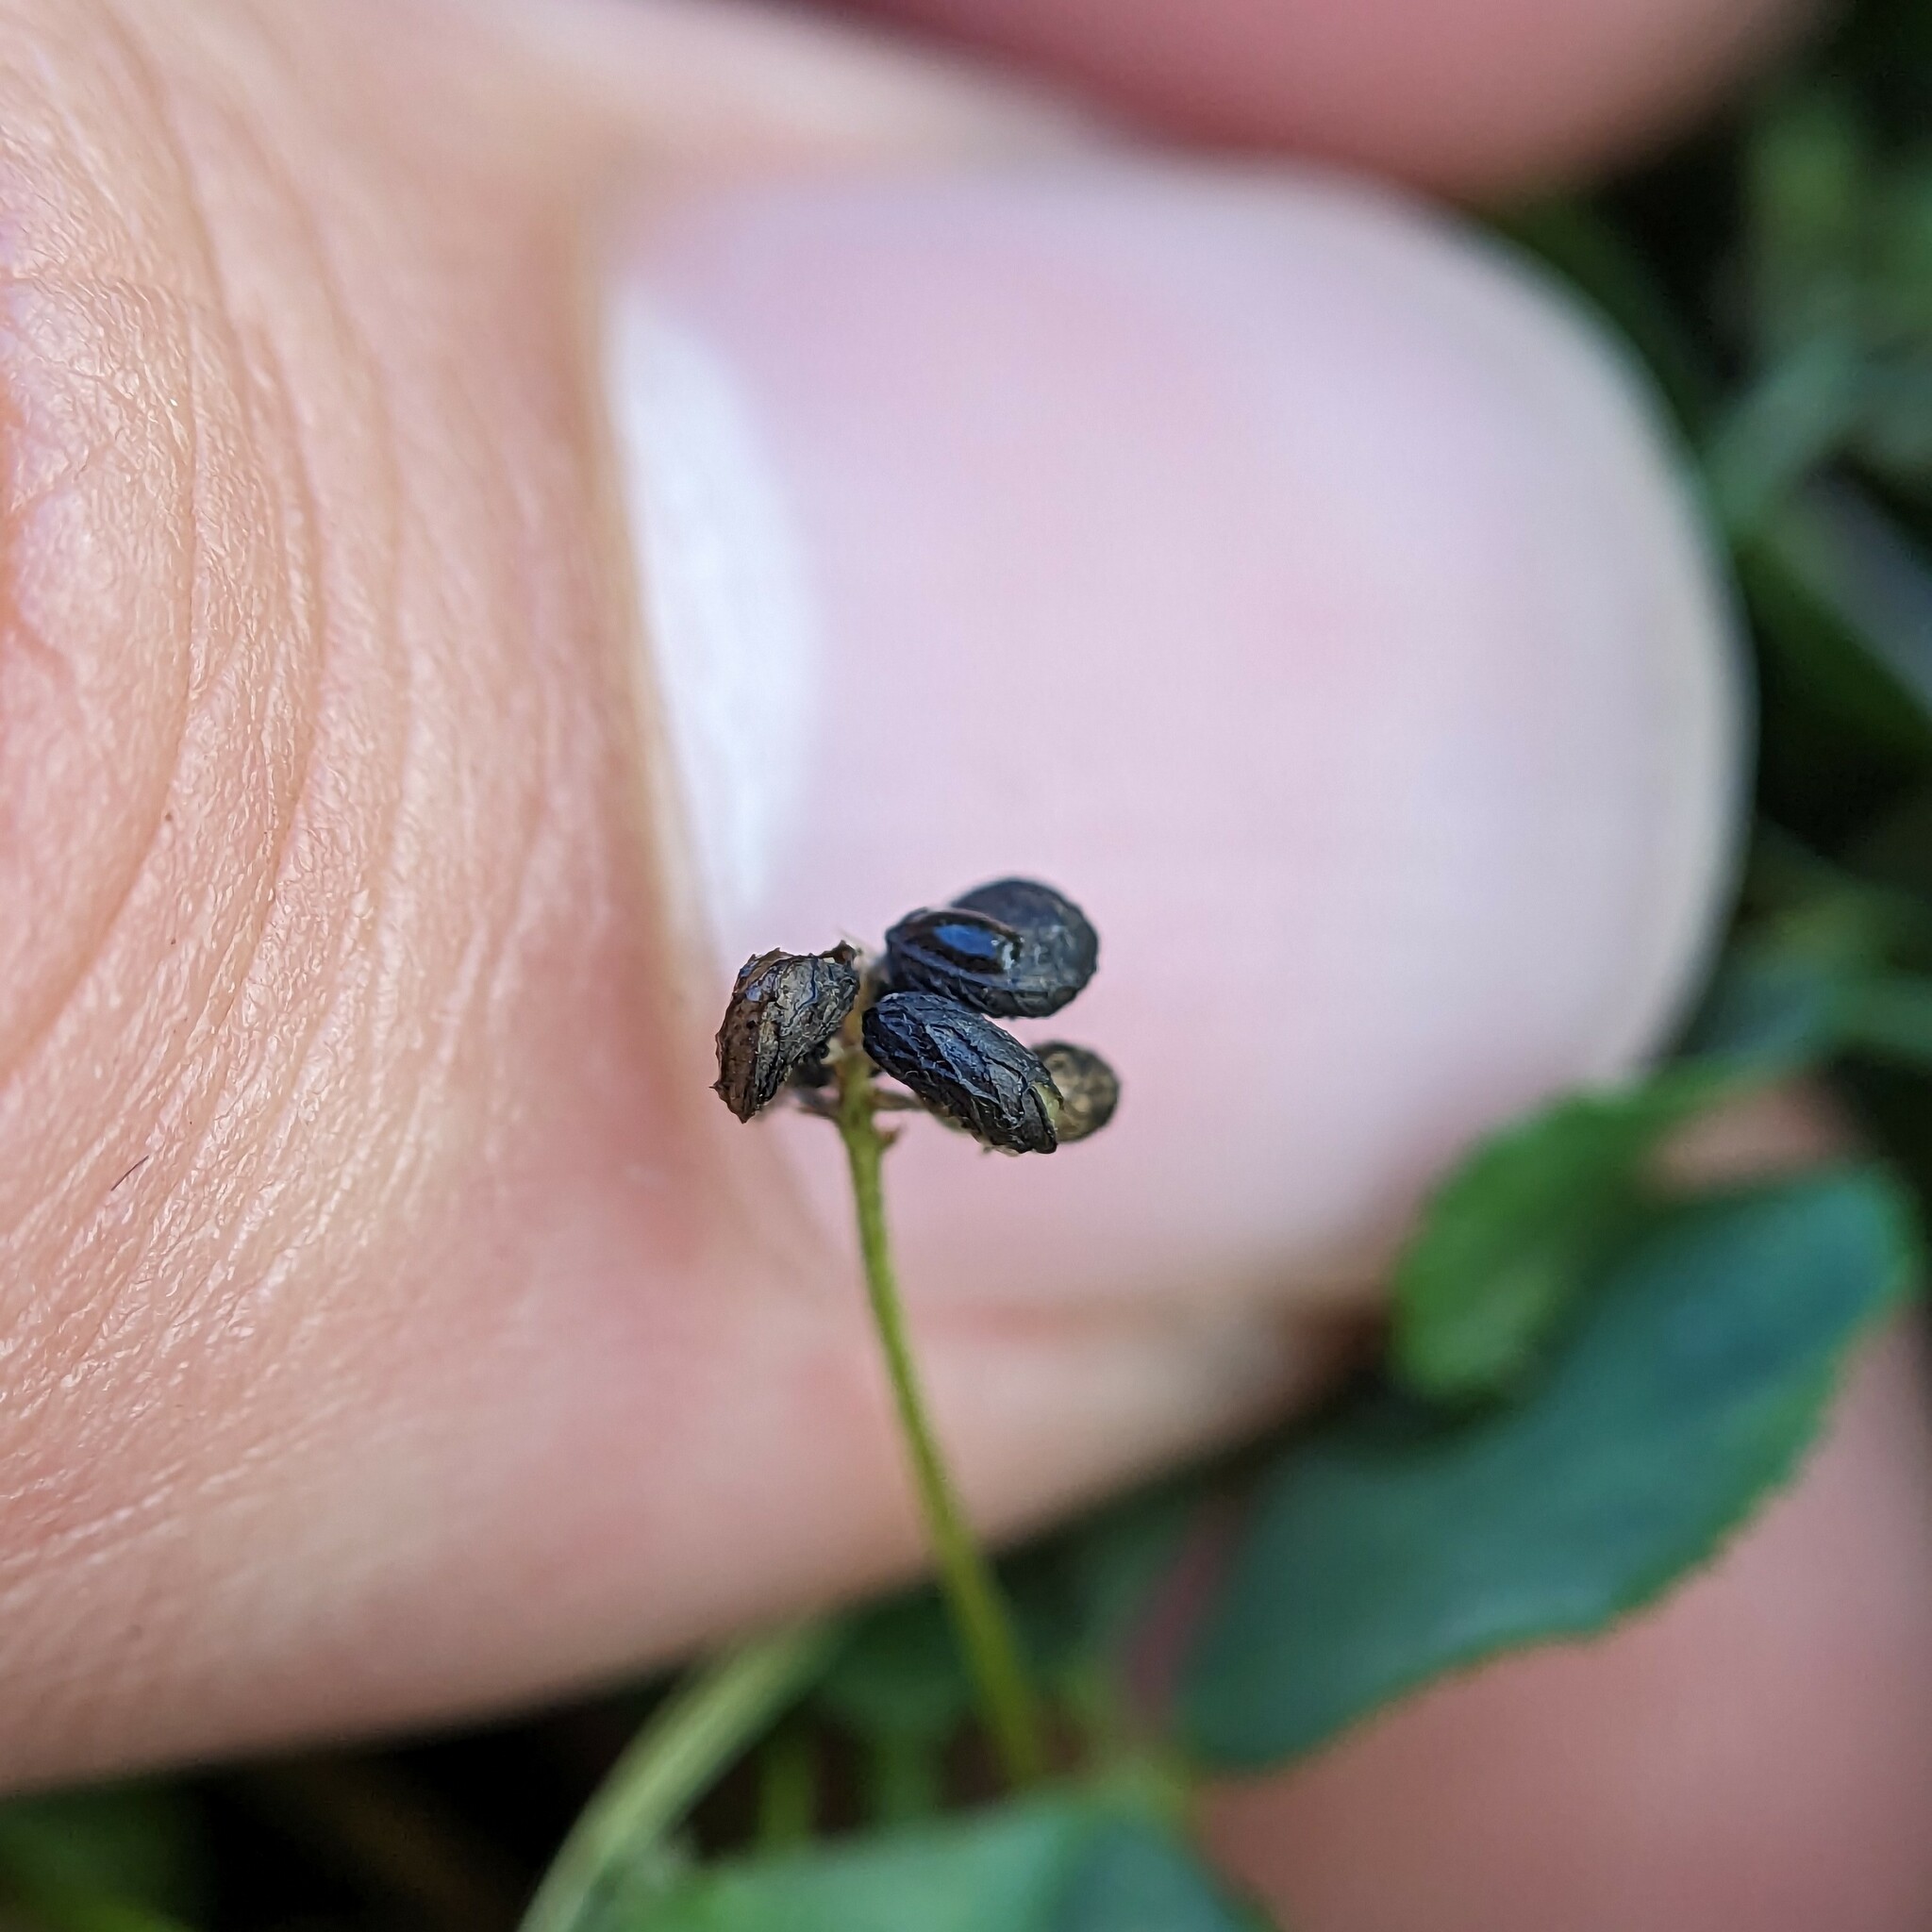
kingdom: Plantae
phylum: Tracheophyta
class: Magnoliopsida
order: Fabales
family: Fabaceae
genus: Medicago
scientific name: Medicago lupulina
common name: Black medick
